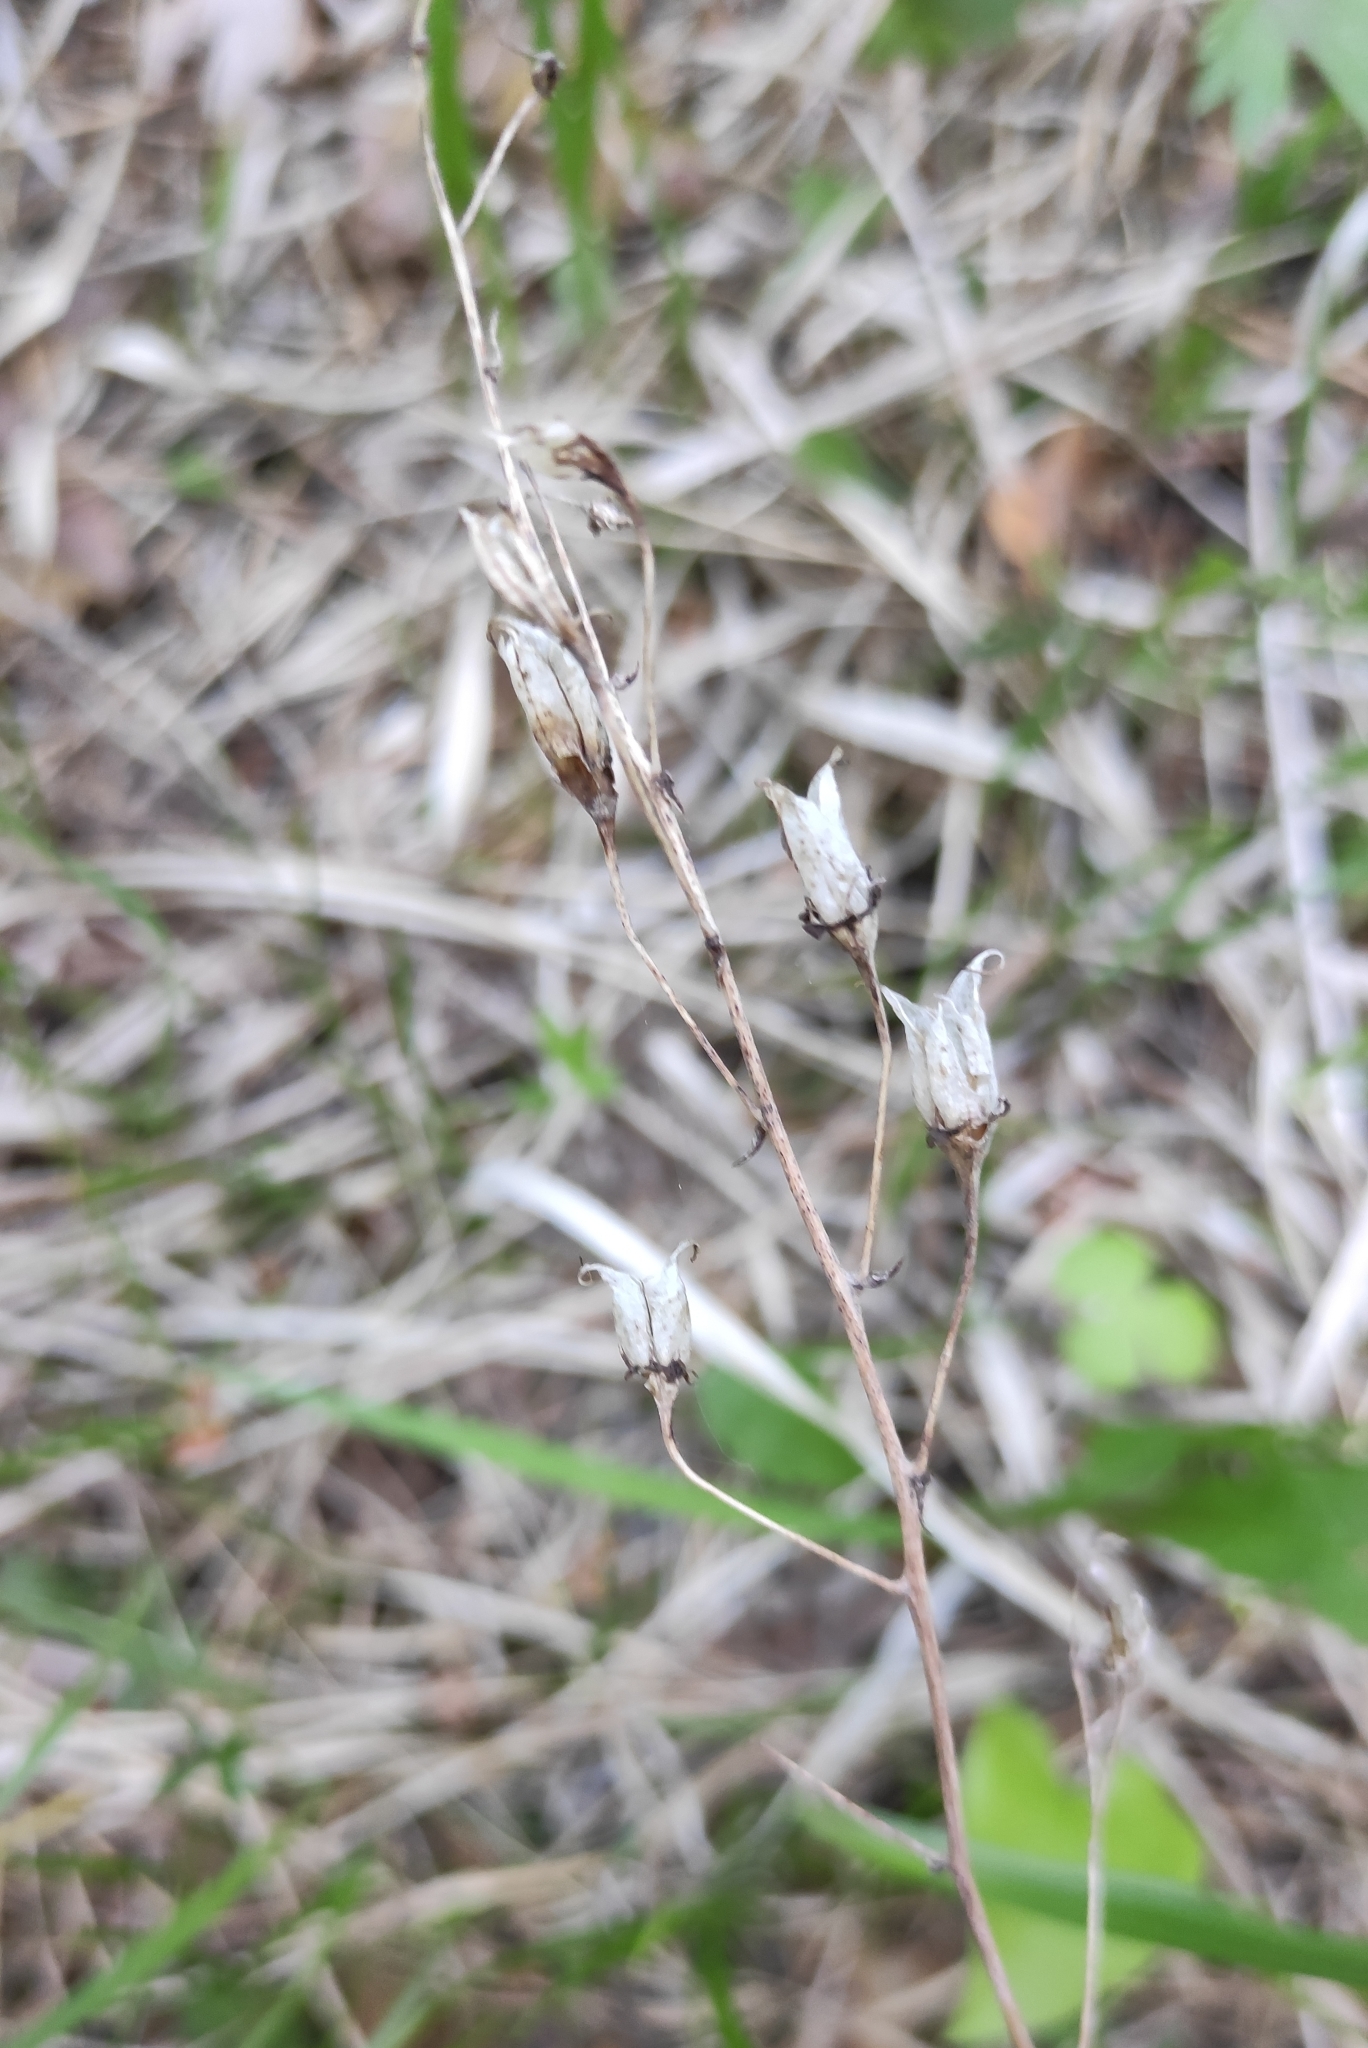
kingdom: Plantae
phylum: Tracheophyta
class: Liliopsida
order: Liliales
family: Melanthiaceae
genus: Anticlea
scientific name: Anticlea sibirica
